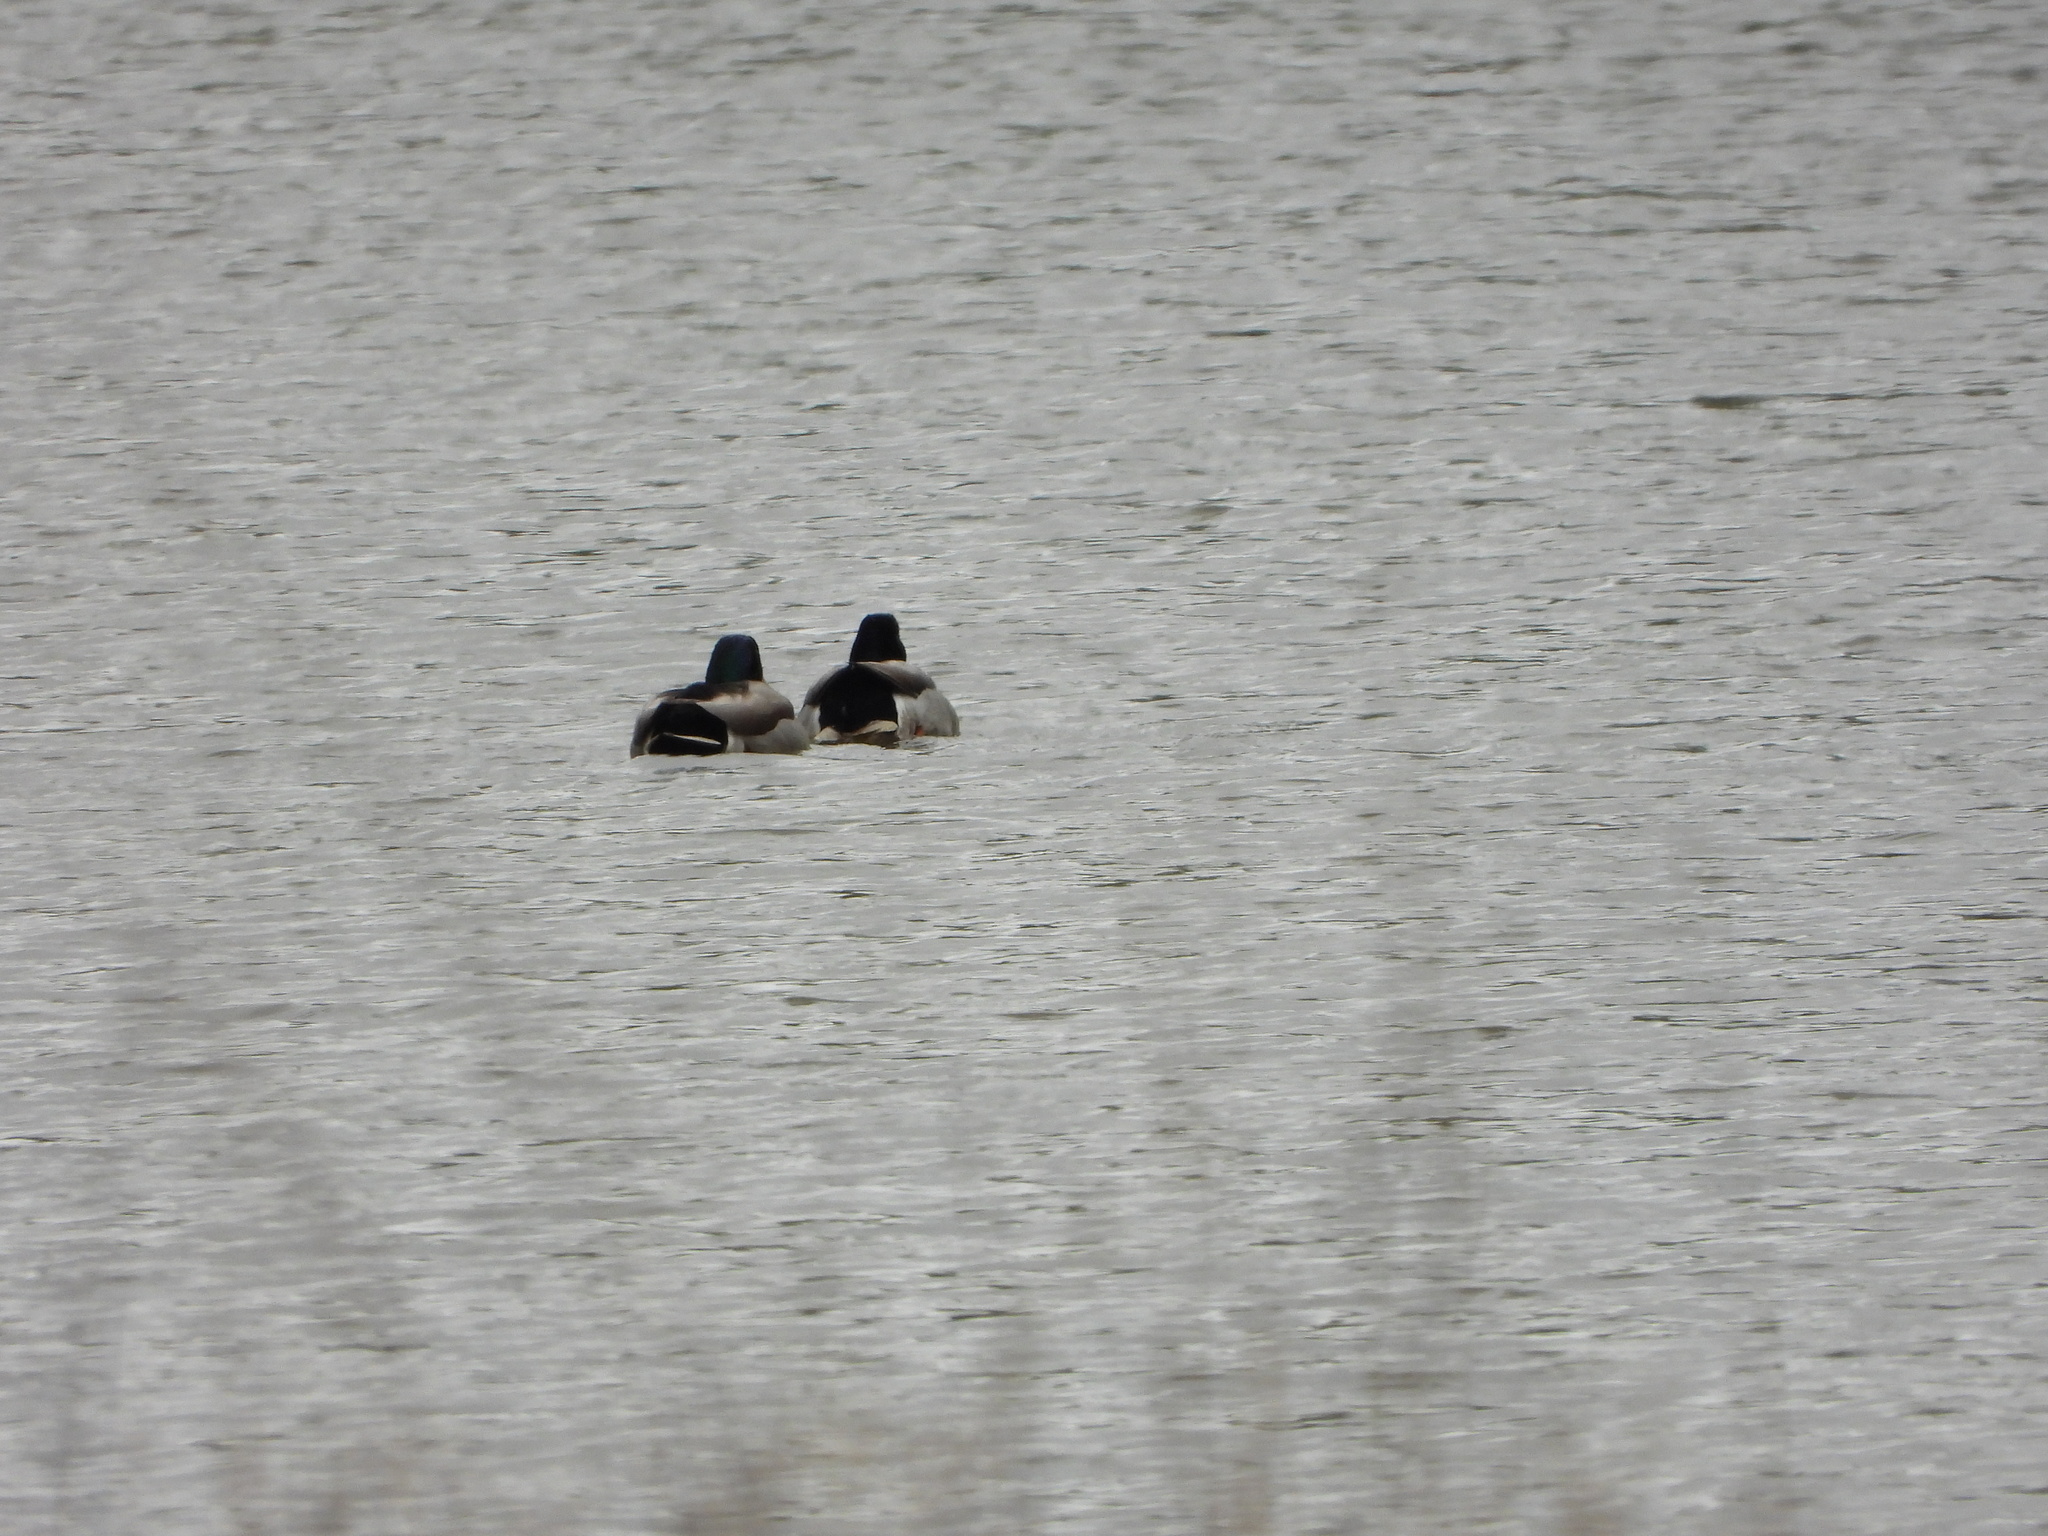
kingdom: Animalia
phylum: Chordata
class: Aves
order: Anseriformes
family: Anatidae
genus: Anas
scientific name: Anas platyrhynchos
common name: Mallard
